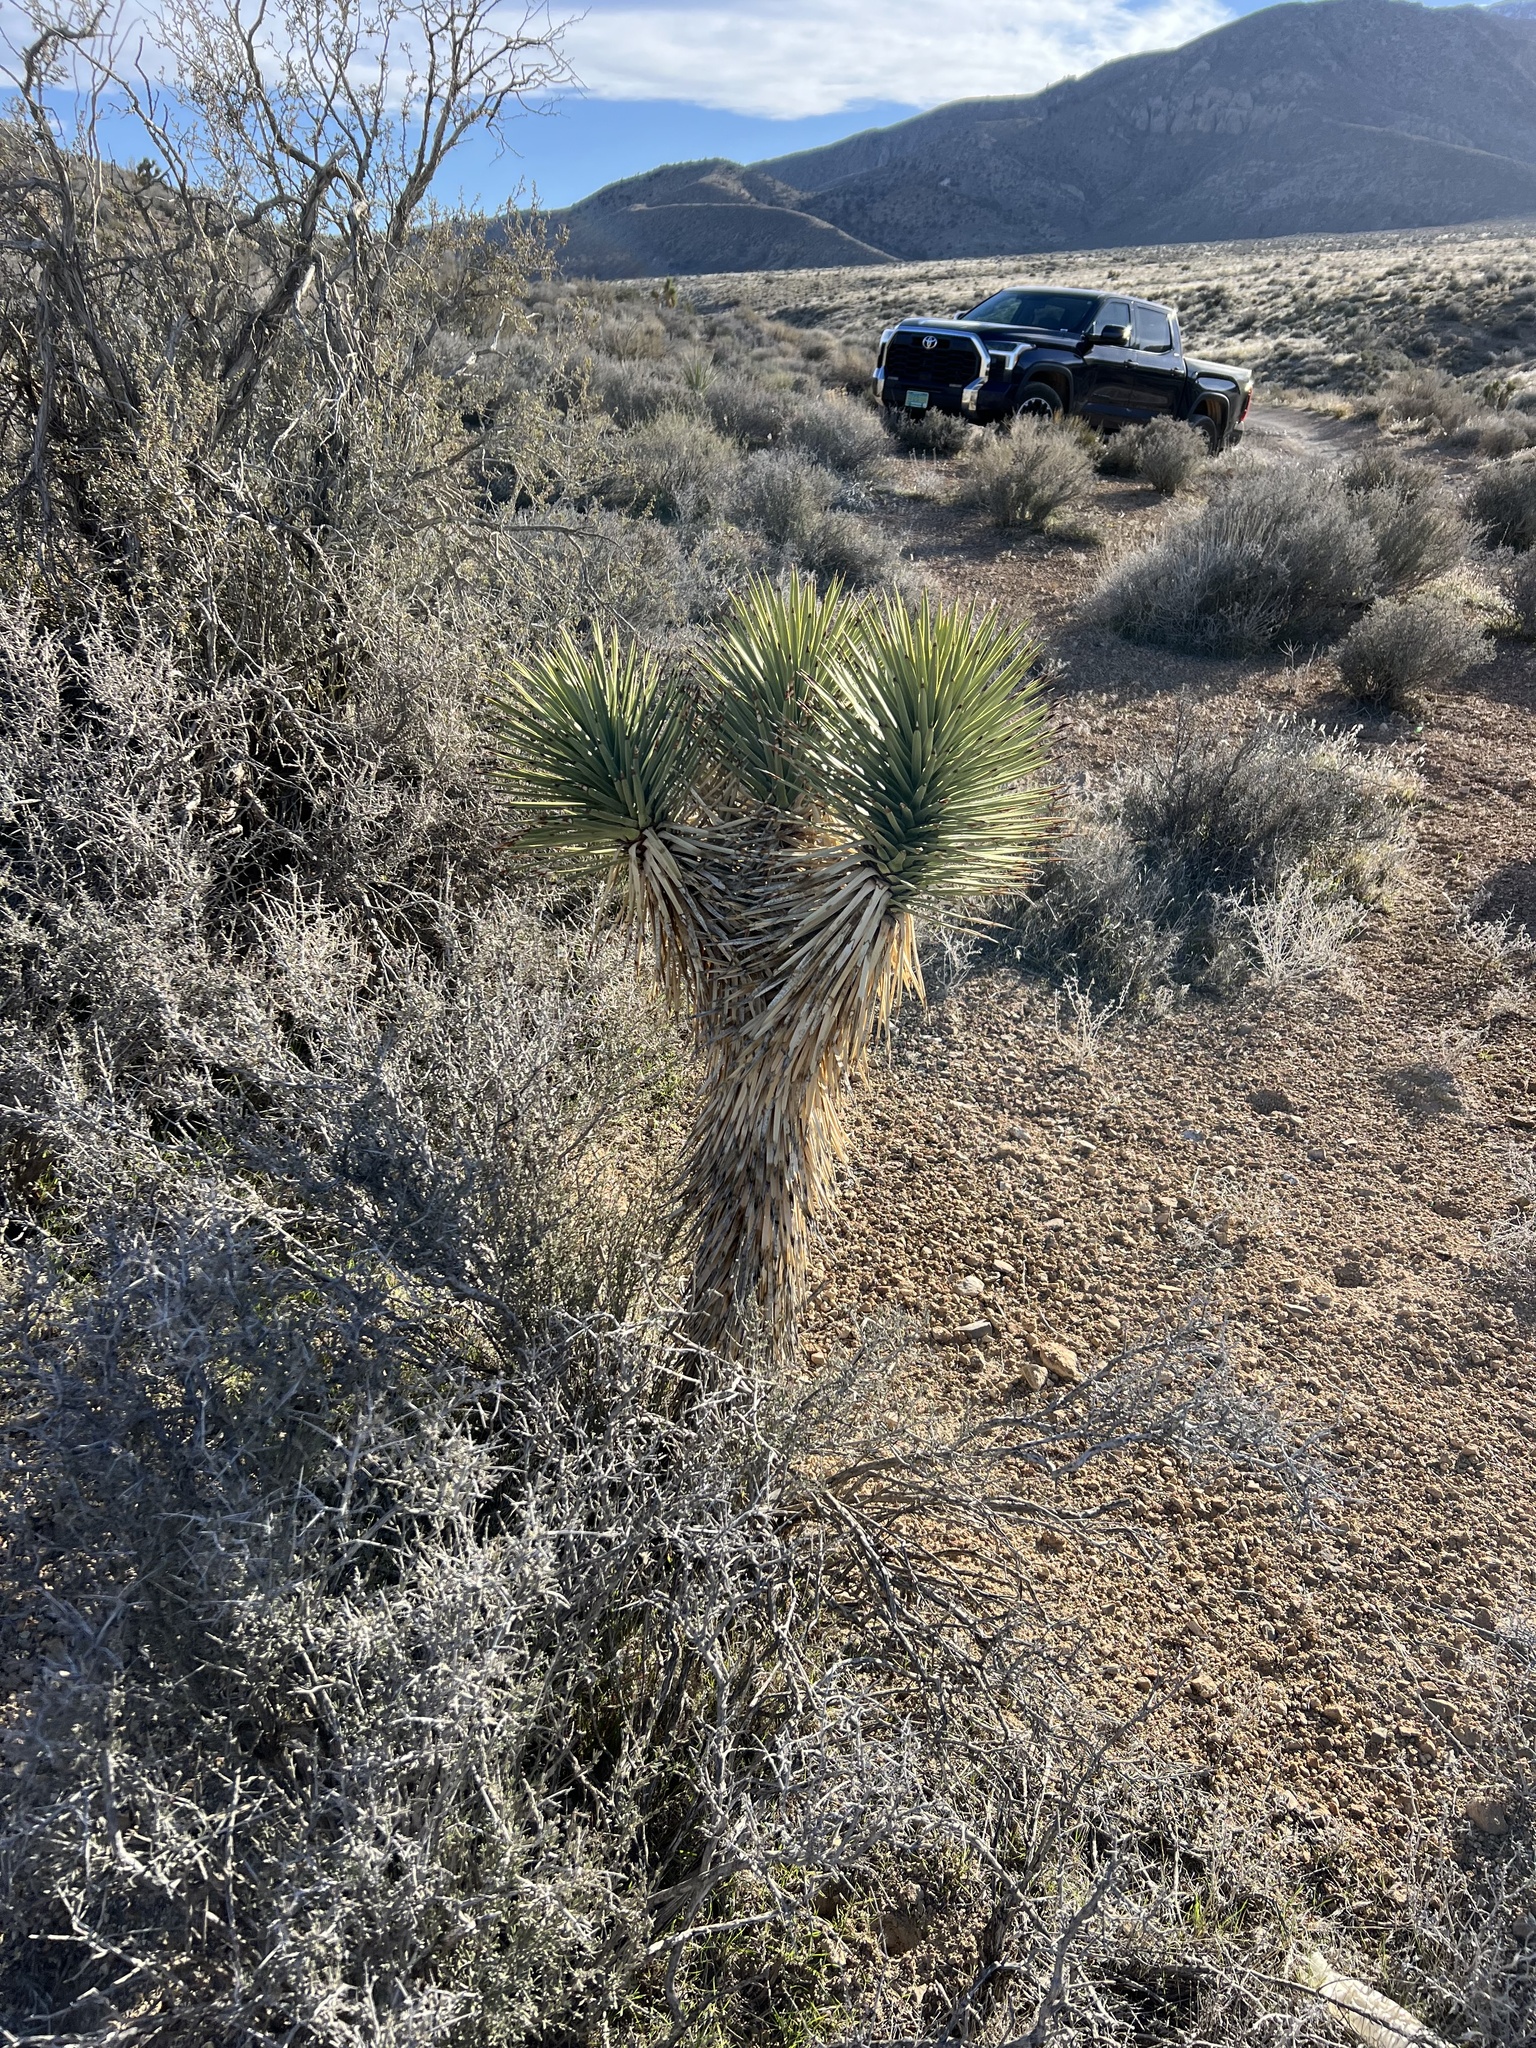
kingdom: Plantae
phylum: Tracheophyta
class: Liliopsida
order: Asparagales
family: Asparagaceae
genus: Yucca
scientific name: Yucca brevifolia
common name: Joshua tree
